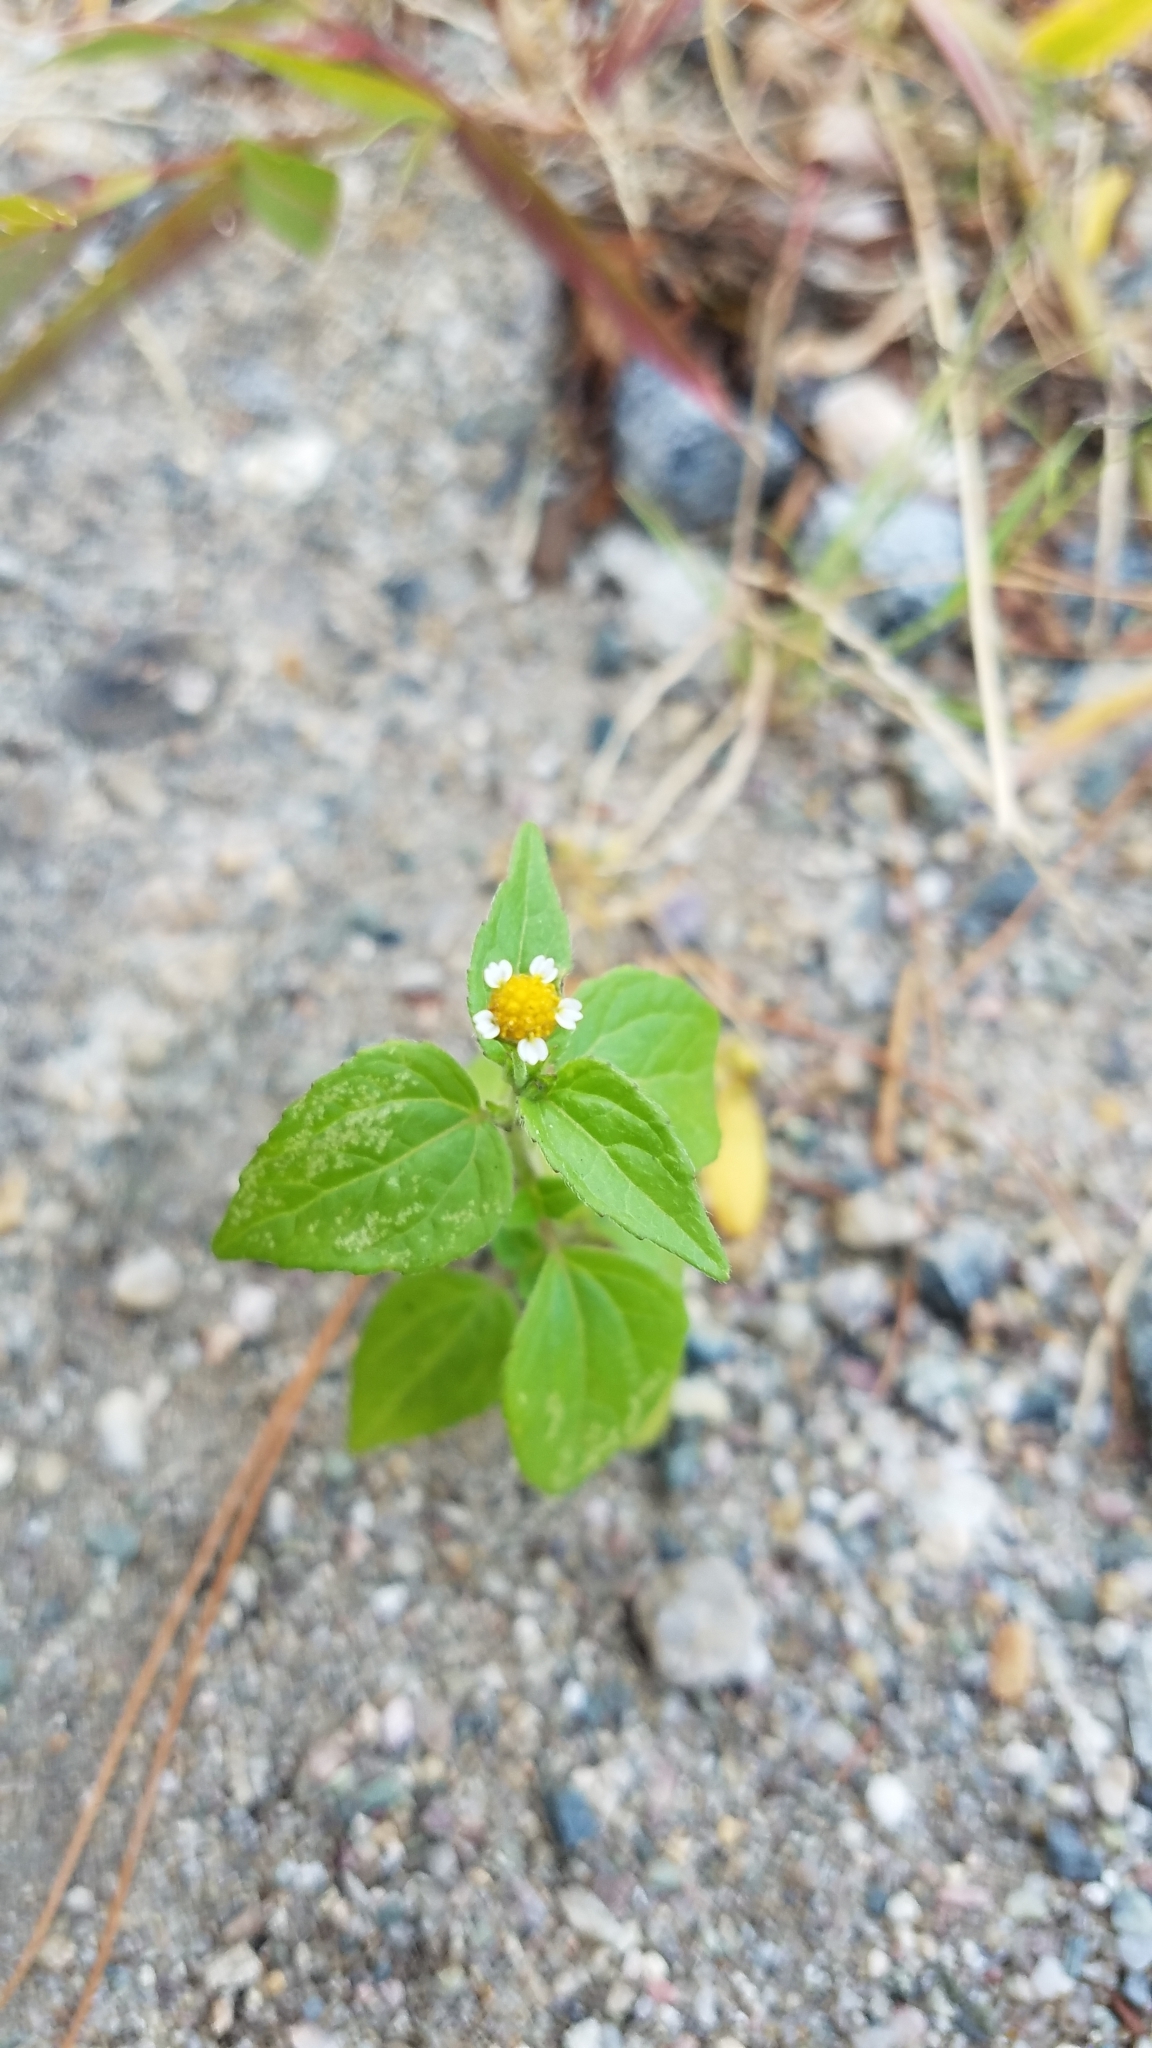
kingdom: Plantae
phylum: Tracheophyta
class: Magnoliopsida
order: Asterales
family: Asteraceae
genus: Galinsoga
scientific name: Galinsoga quadriradiata
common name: Shaggy soldier
